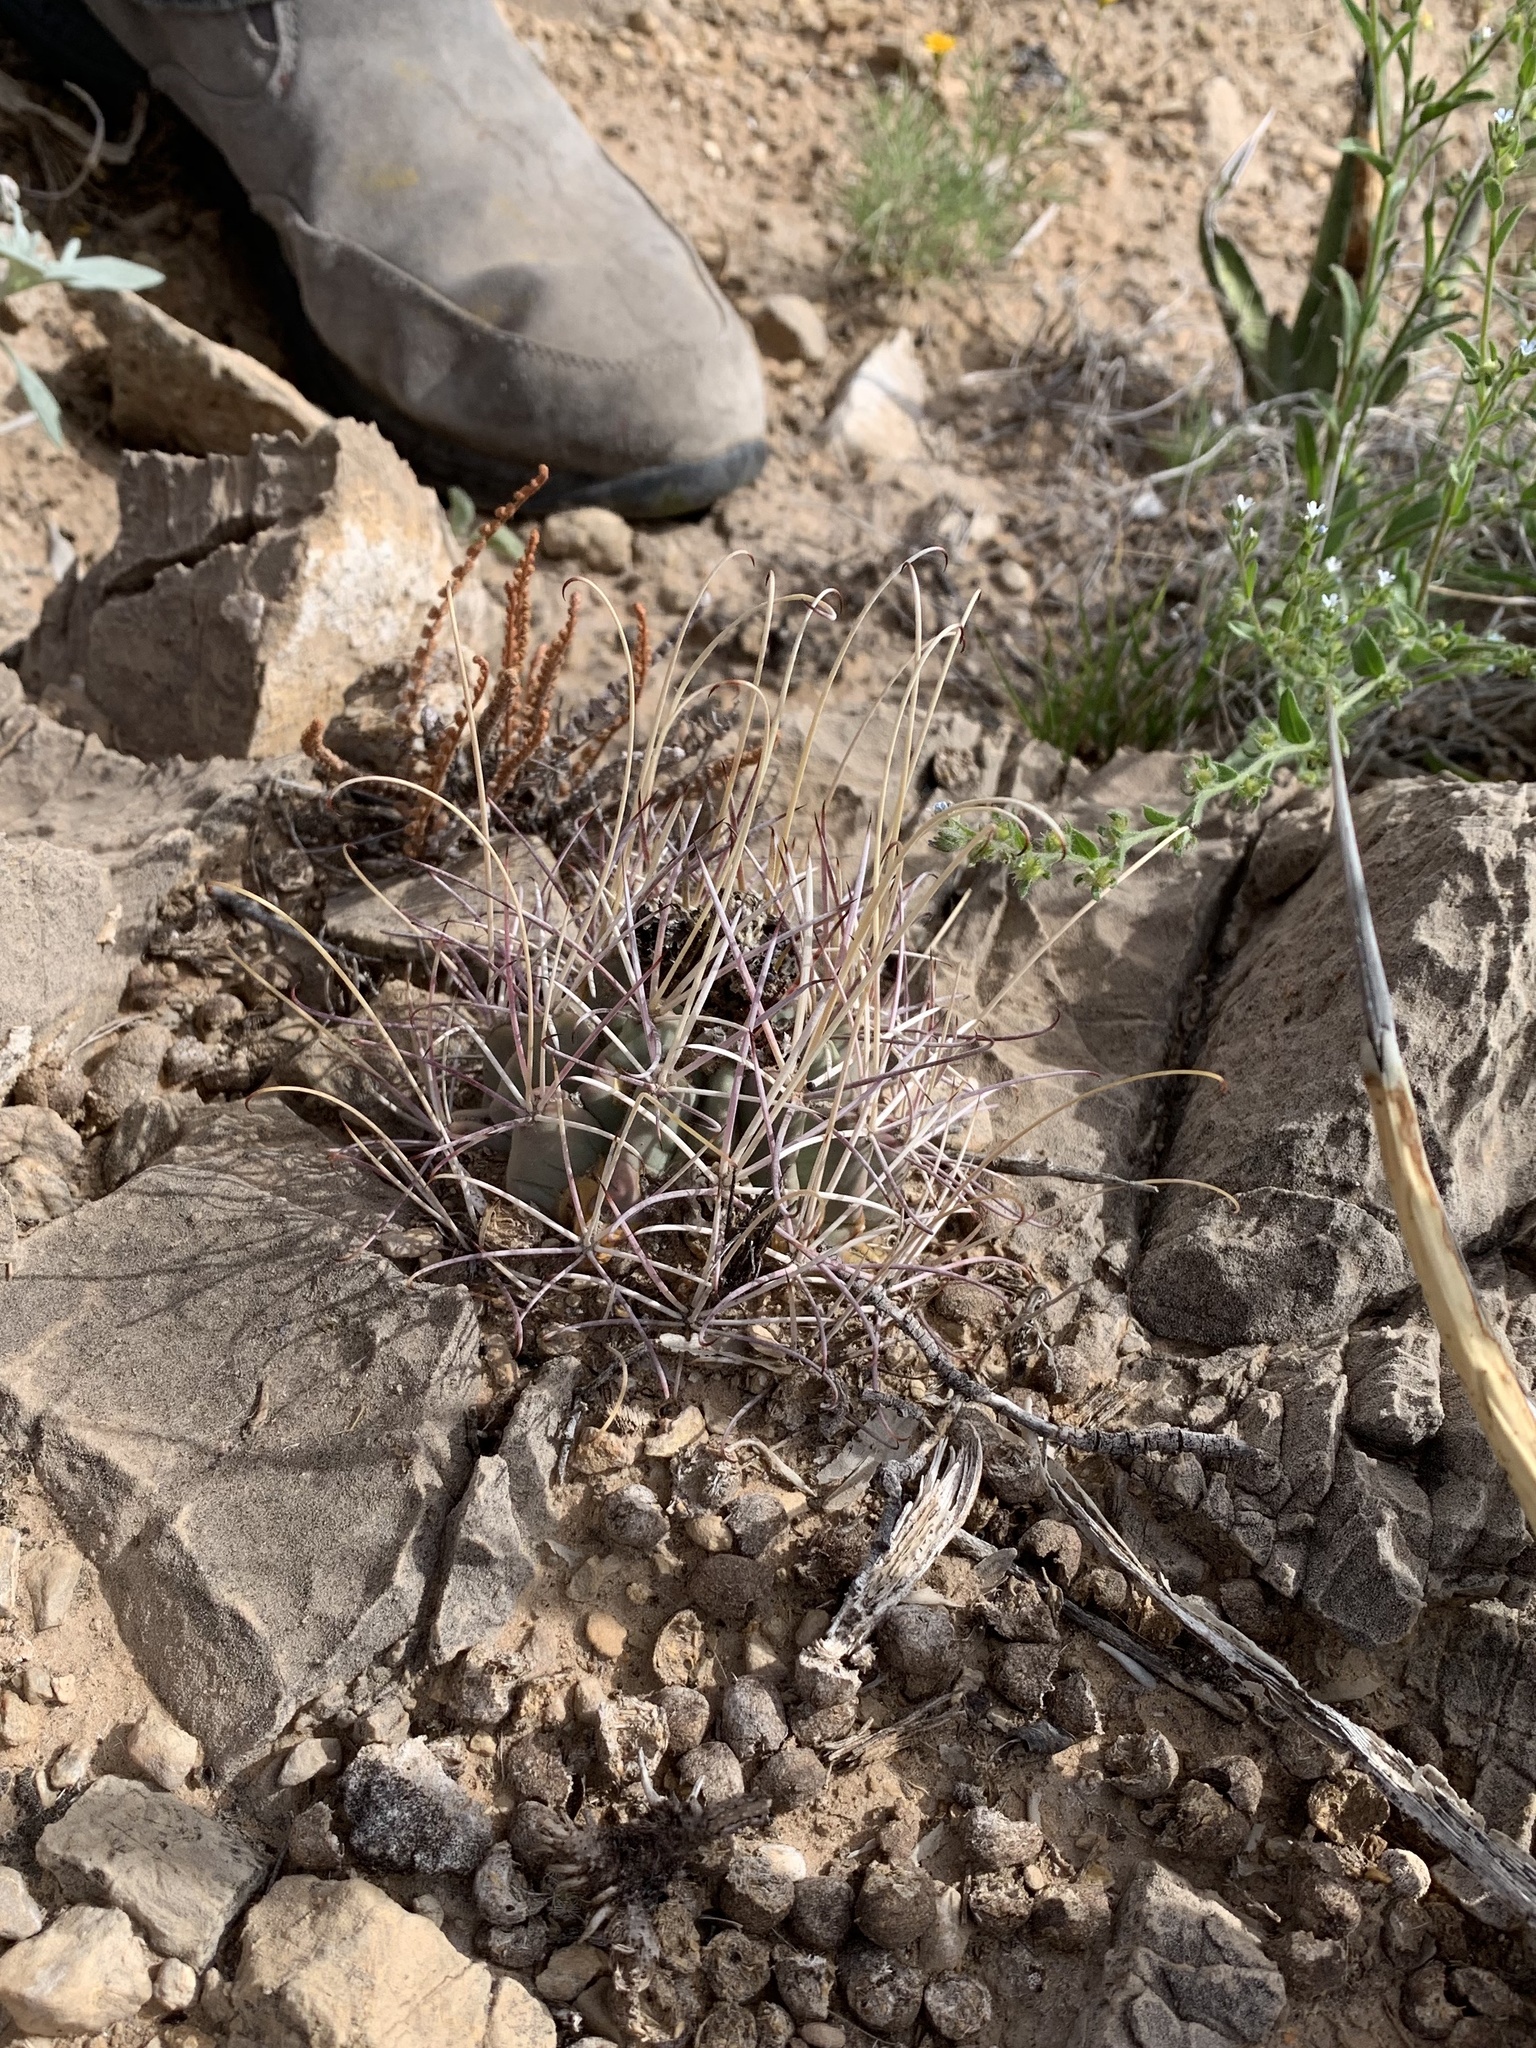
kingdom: Plantae
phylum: Tracheophyta
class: Magnoliopsida
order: Caryophyllales
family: Cactaceae
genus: Ferocactus
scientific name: Ferocactus uncinatus
